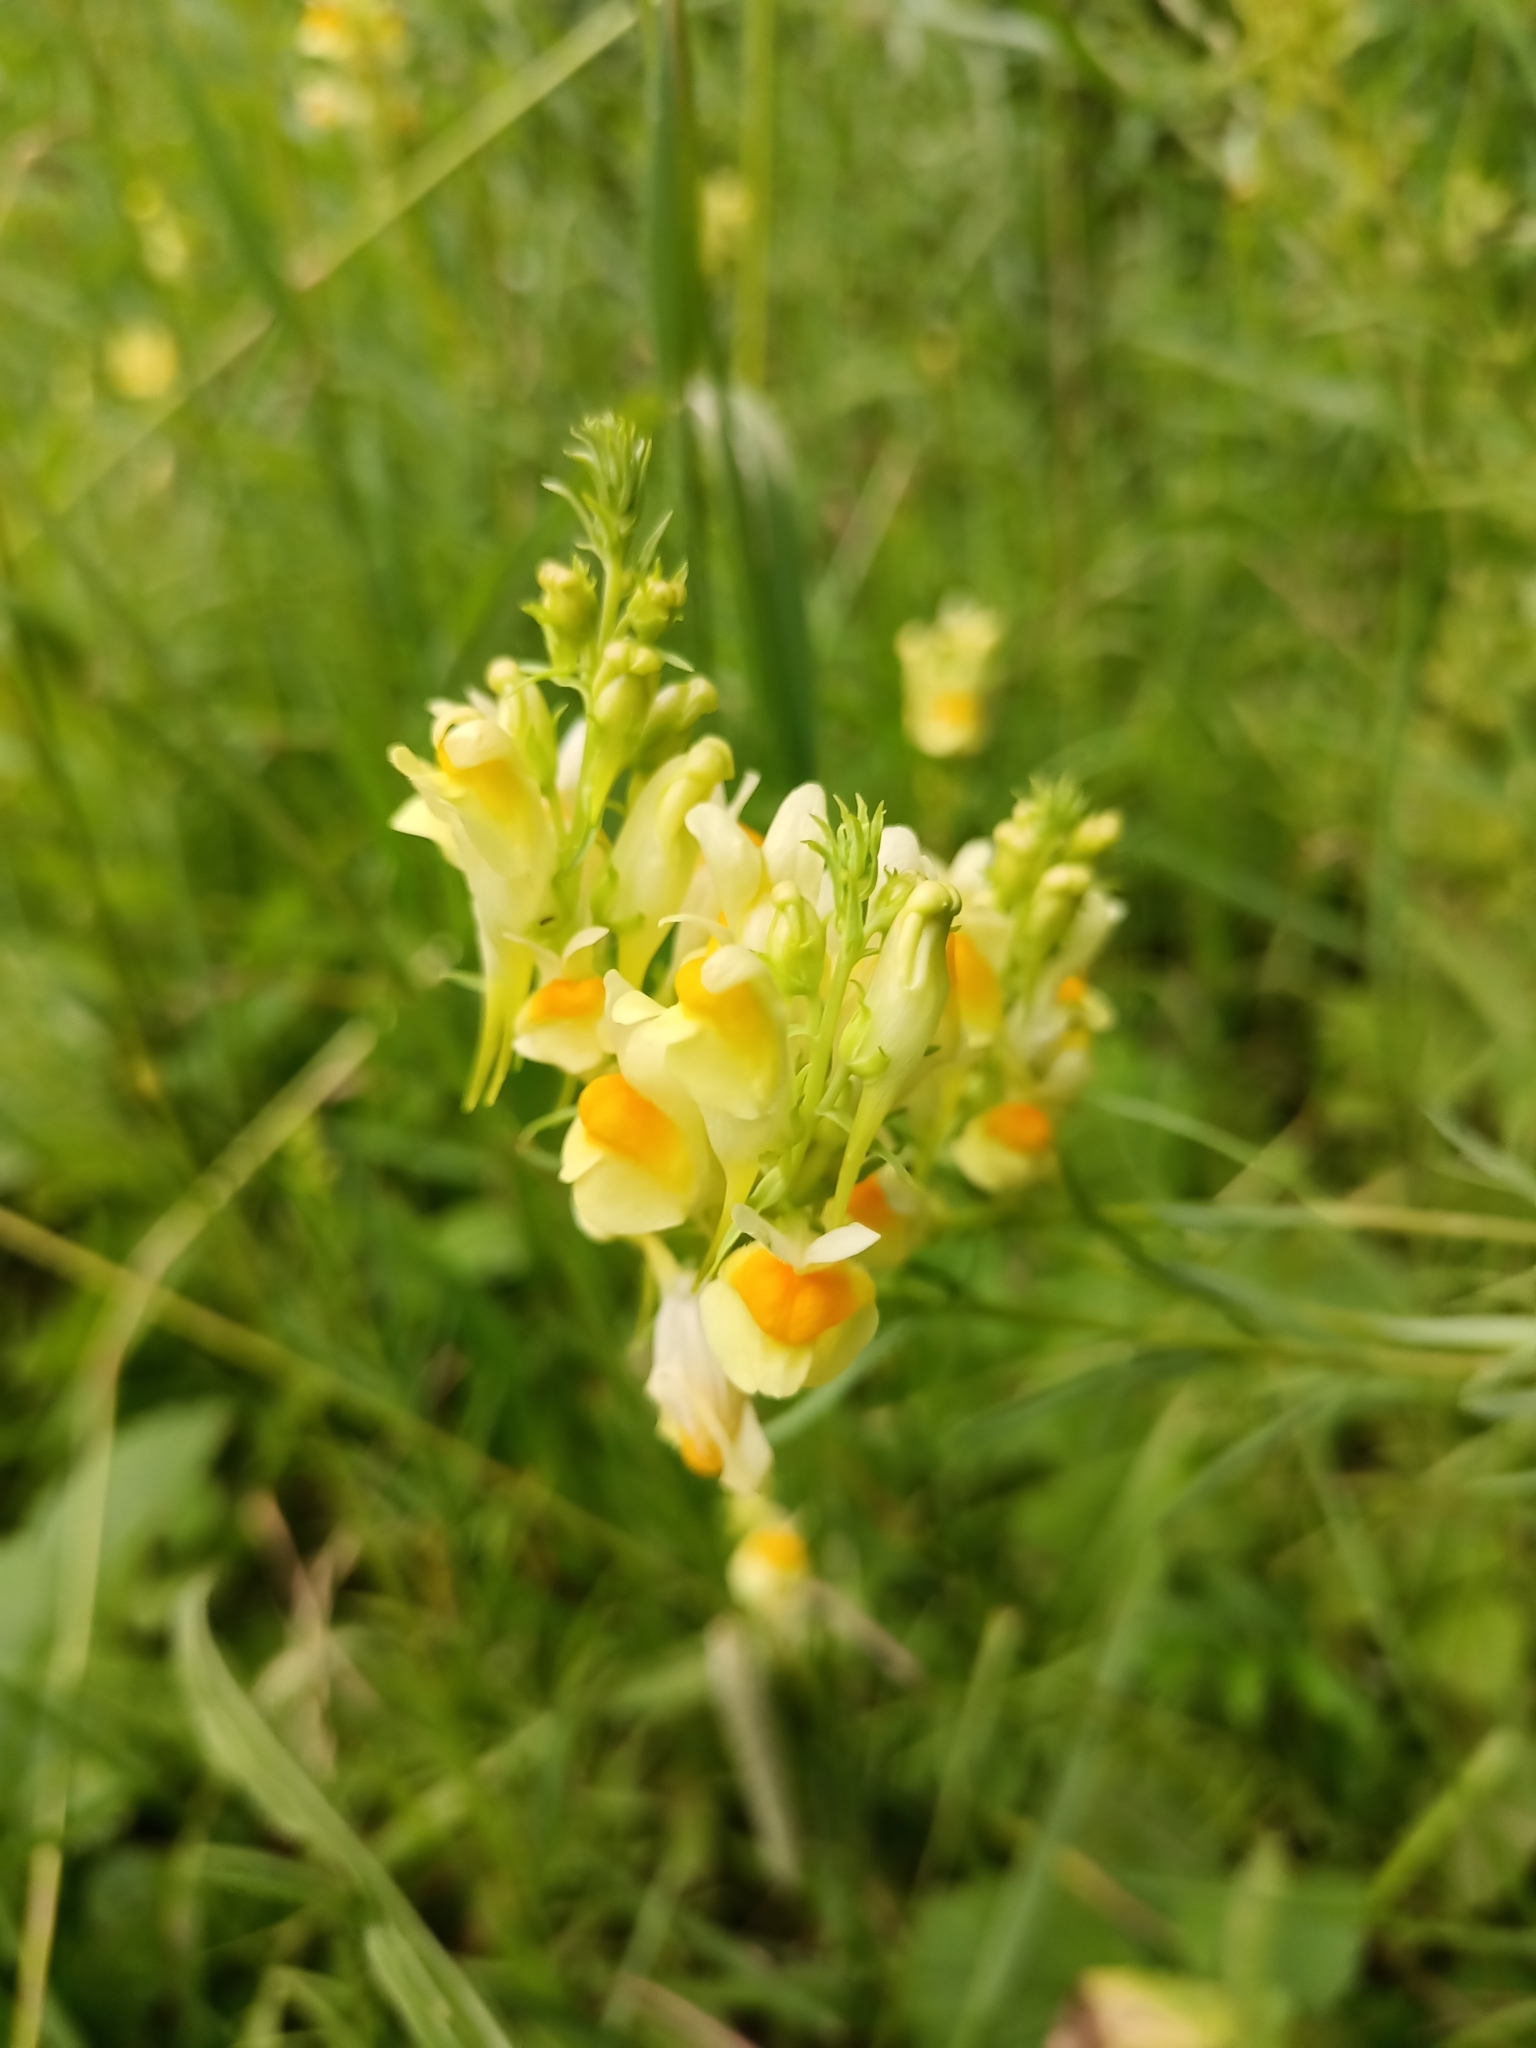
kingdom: Plantae
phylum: Tracheophyta
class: Magnoliopsida
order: Lamiales
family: Plantaginaceae
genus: Linaria
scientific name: Linaria vulgaris
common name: Butter and eggs
